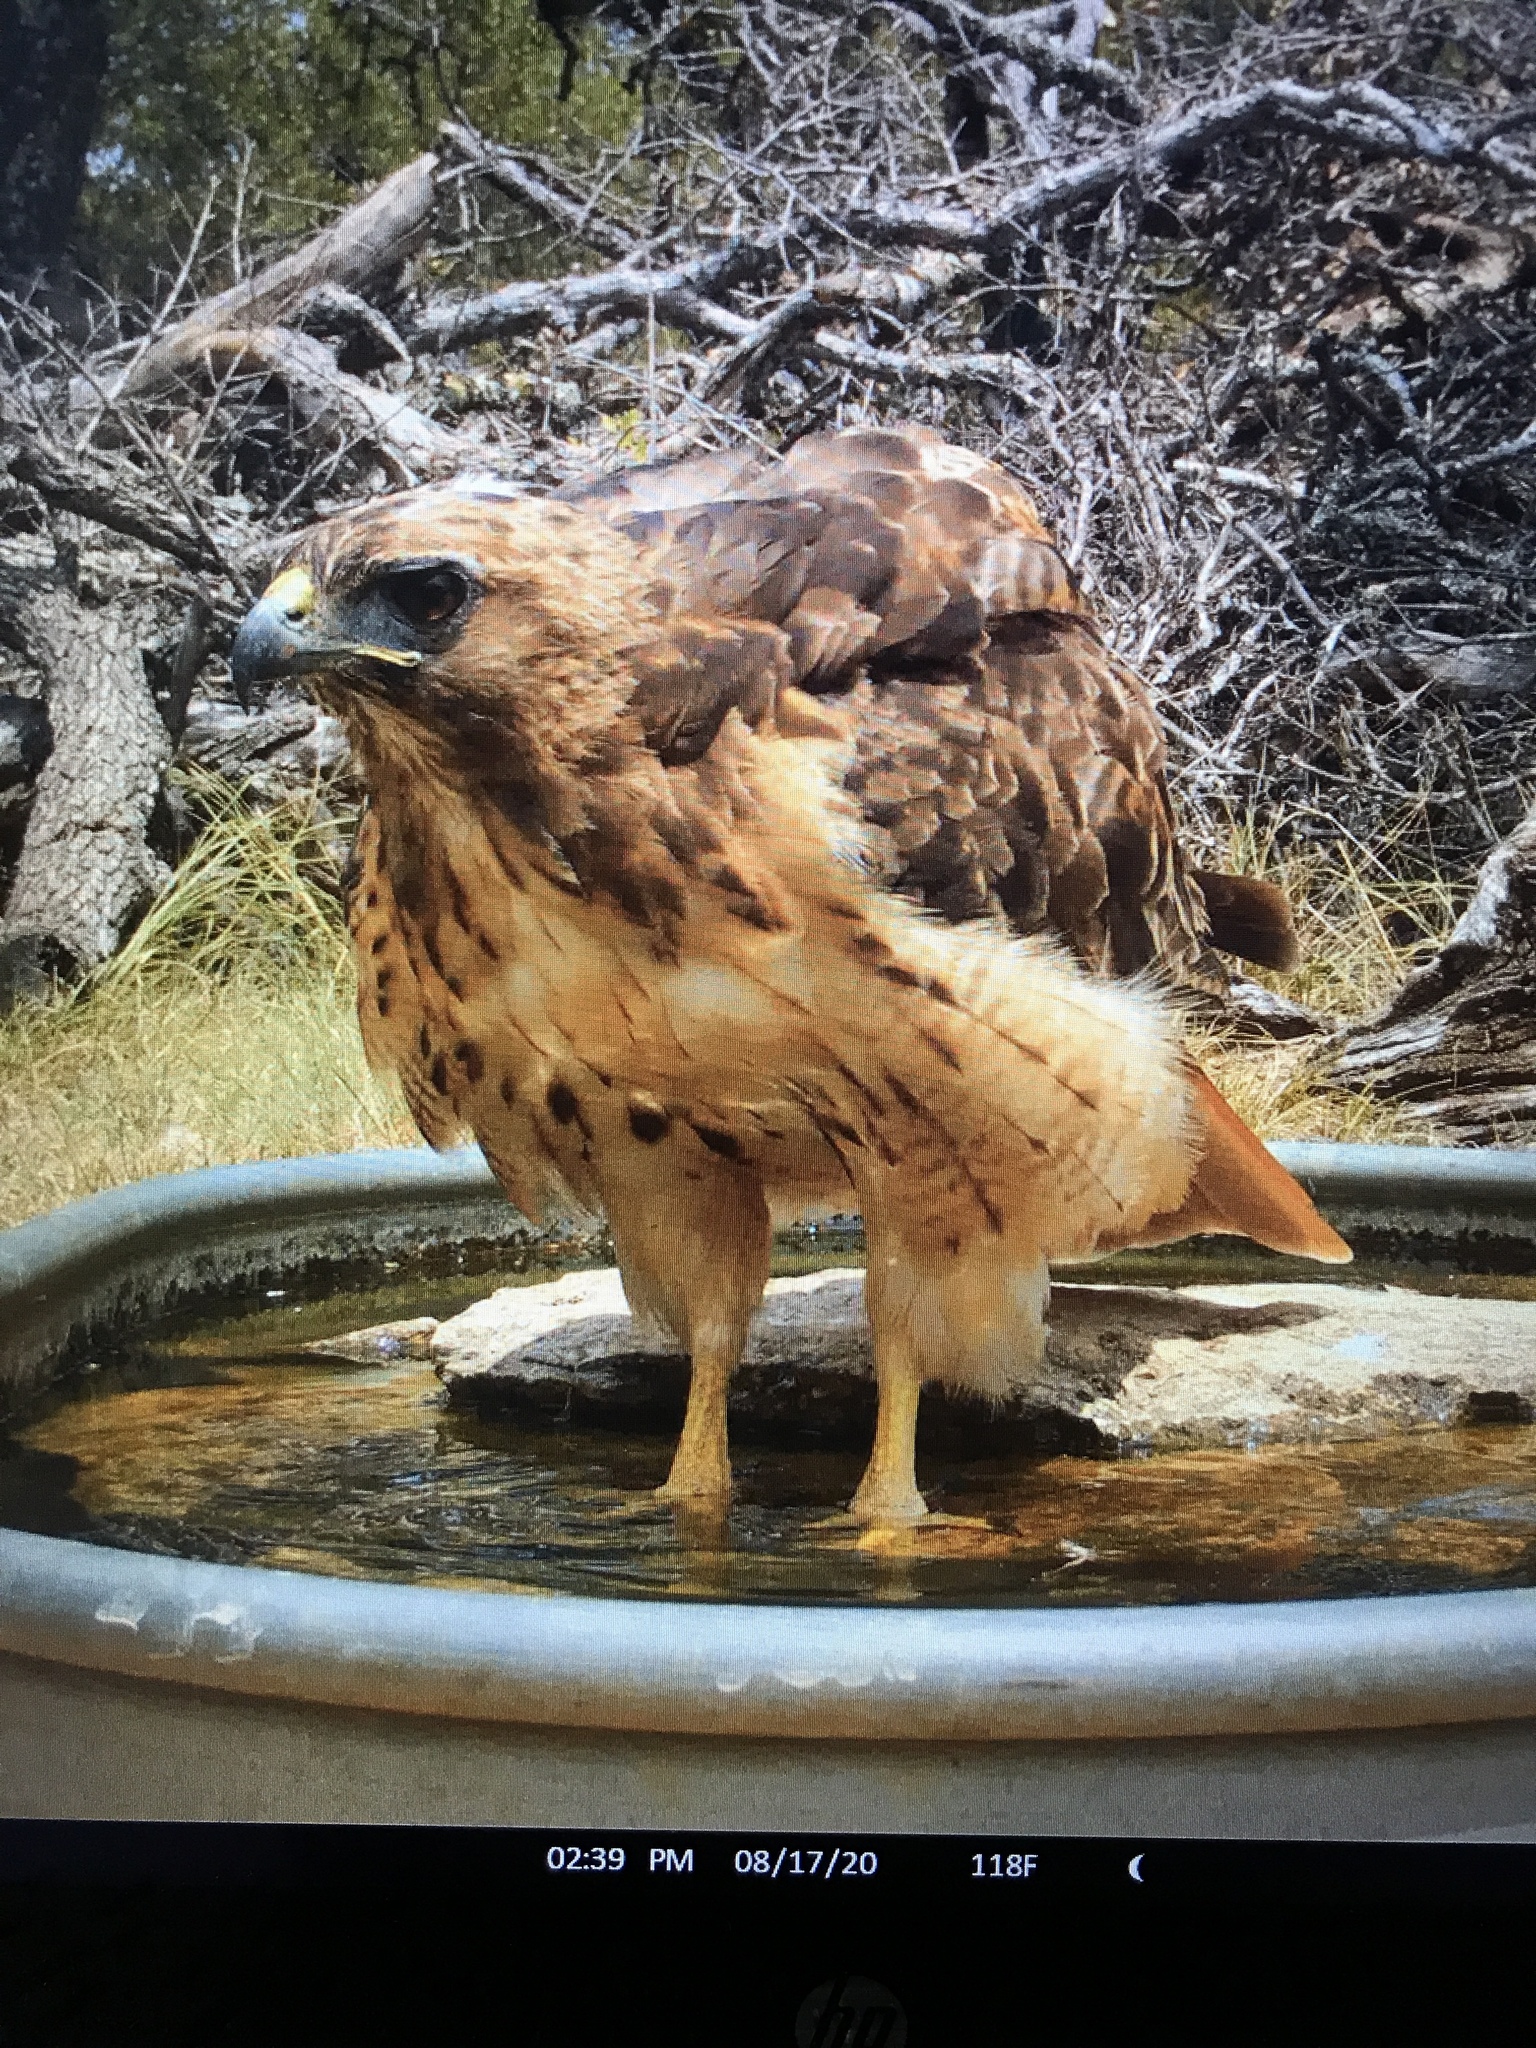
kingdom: Animalia
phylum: Chordata
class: Aves
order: Accipitriformes
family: Accipitridae
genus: Buteo
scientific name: Buteo jamaicensis
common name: Red-tailed hawk
